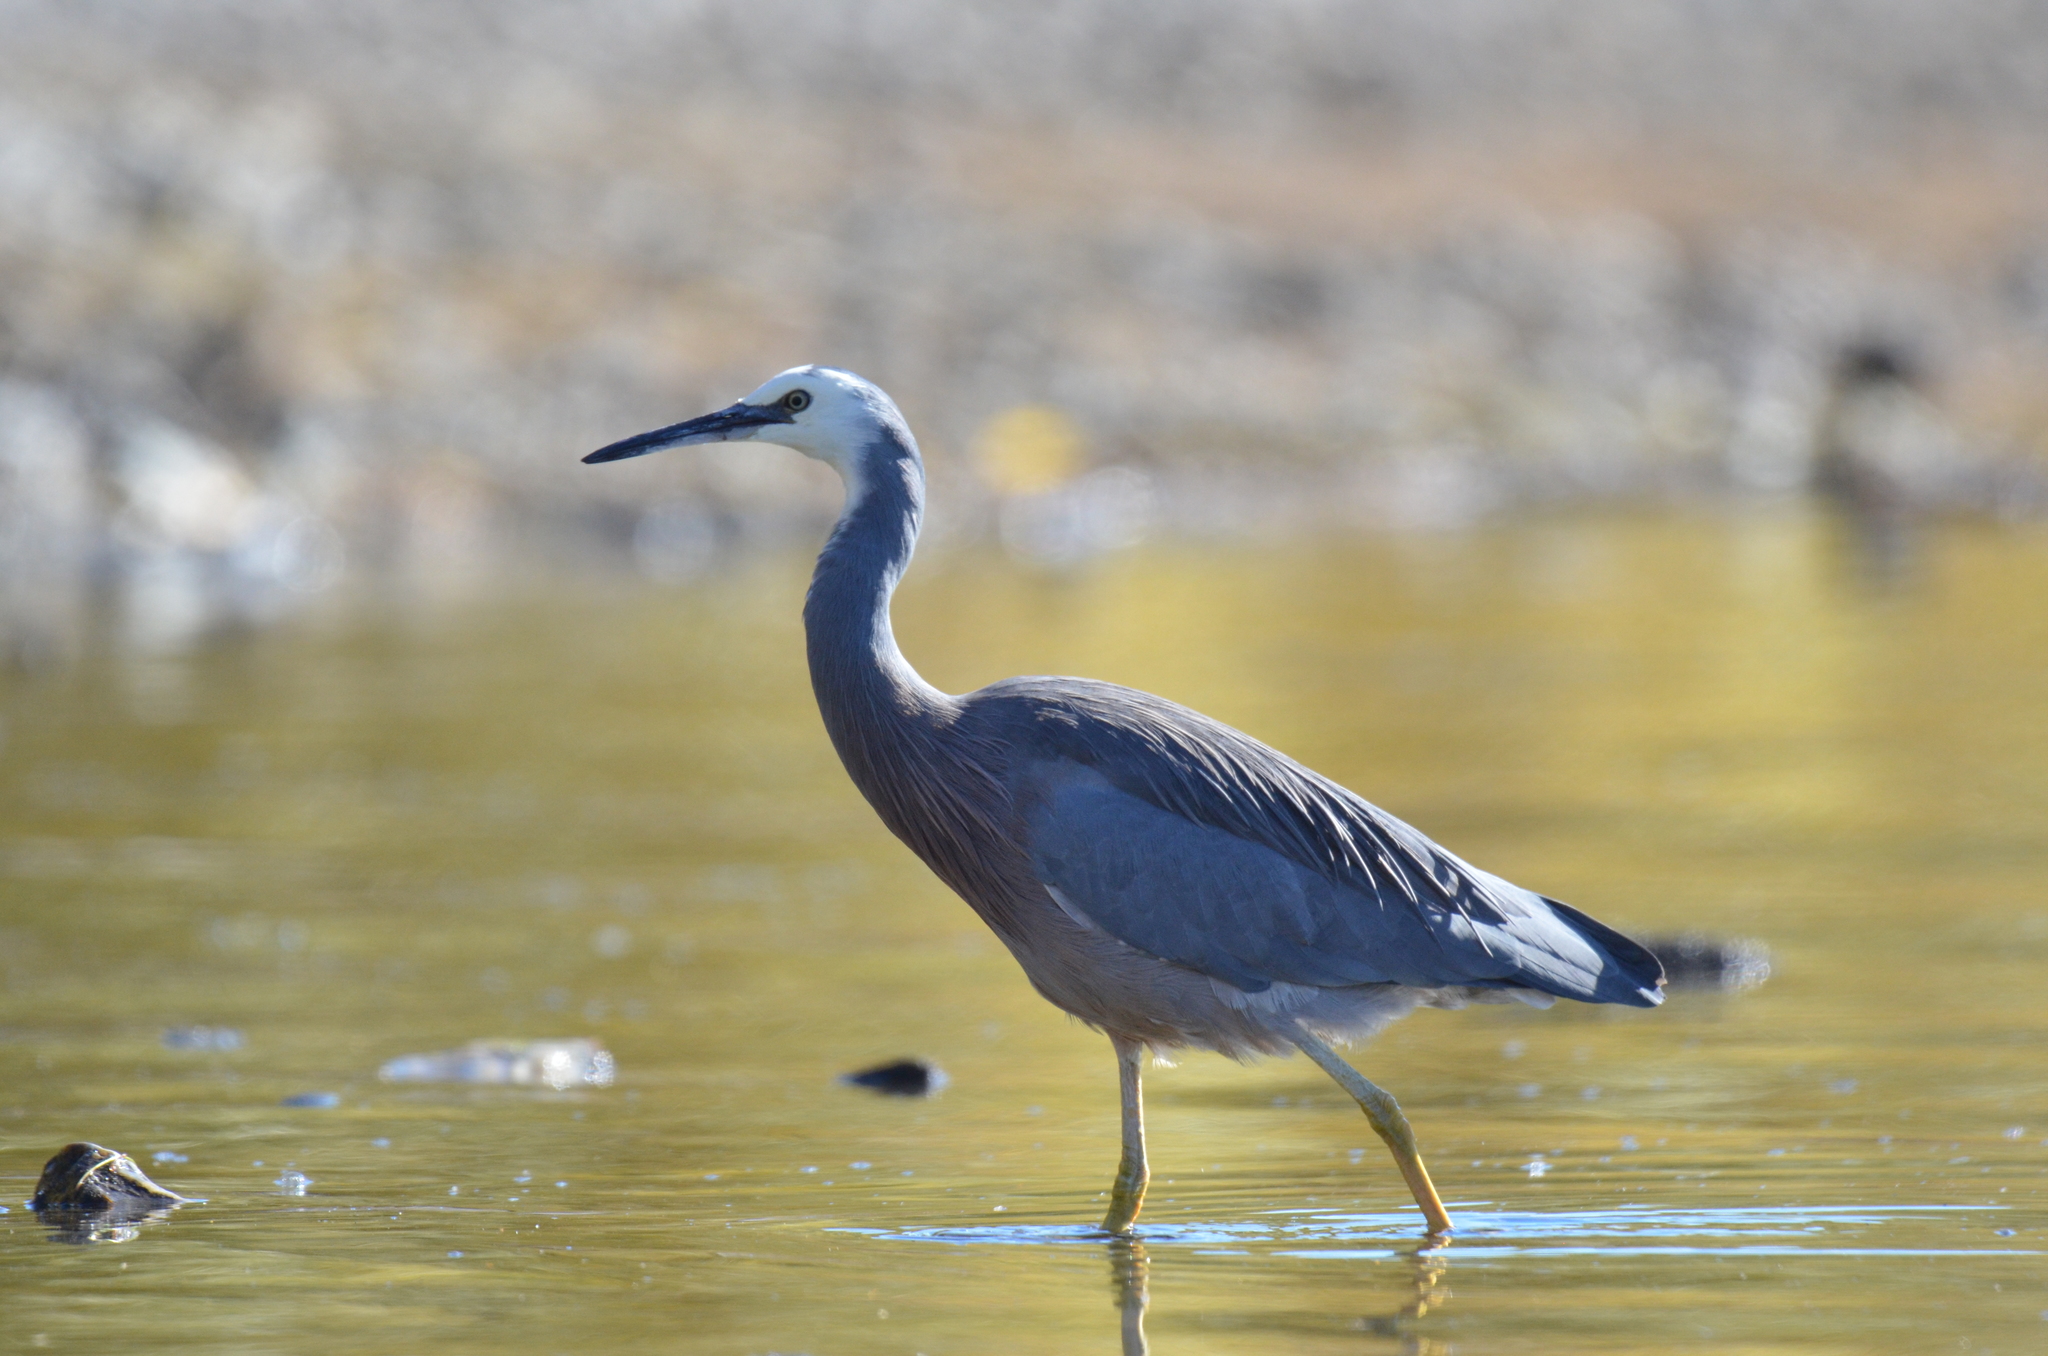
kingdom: Animalia
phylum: Chordata
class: Aves
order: Pelecaniformes
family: Ardeidae
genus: Egretta
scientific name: Egretta novaehollandiae
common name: White-faced heron
